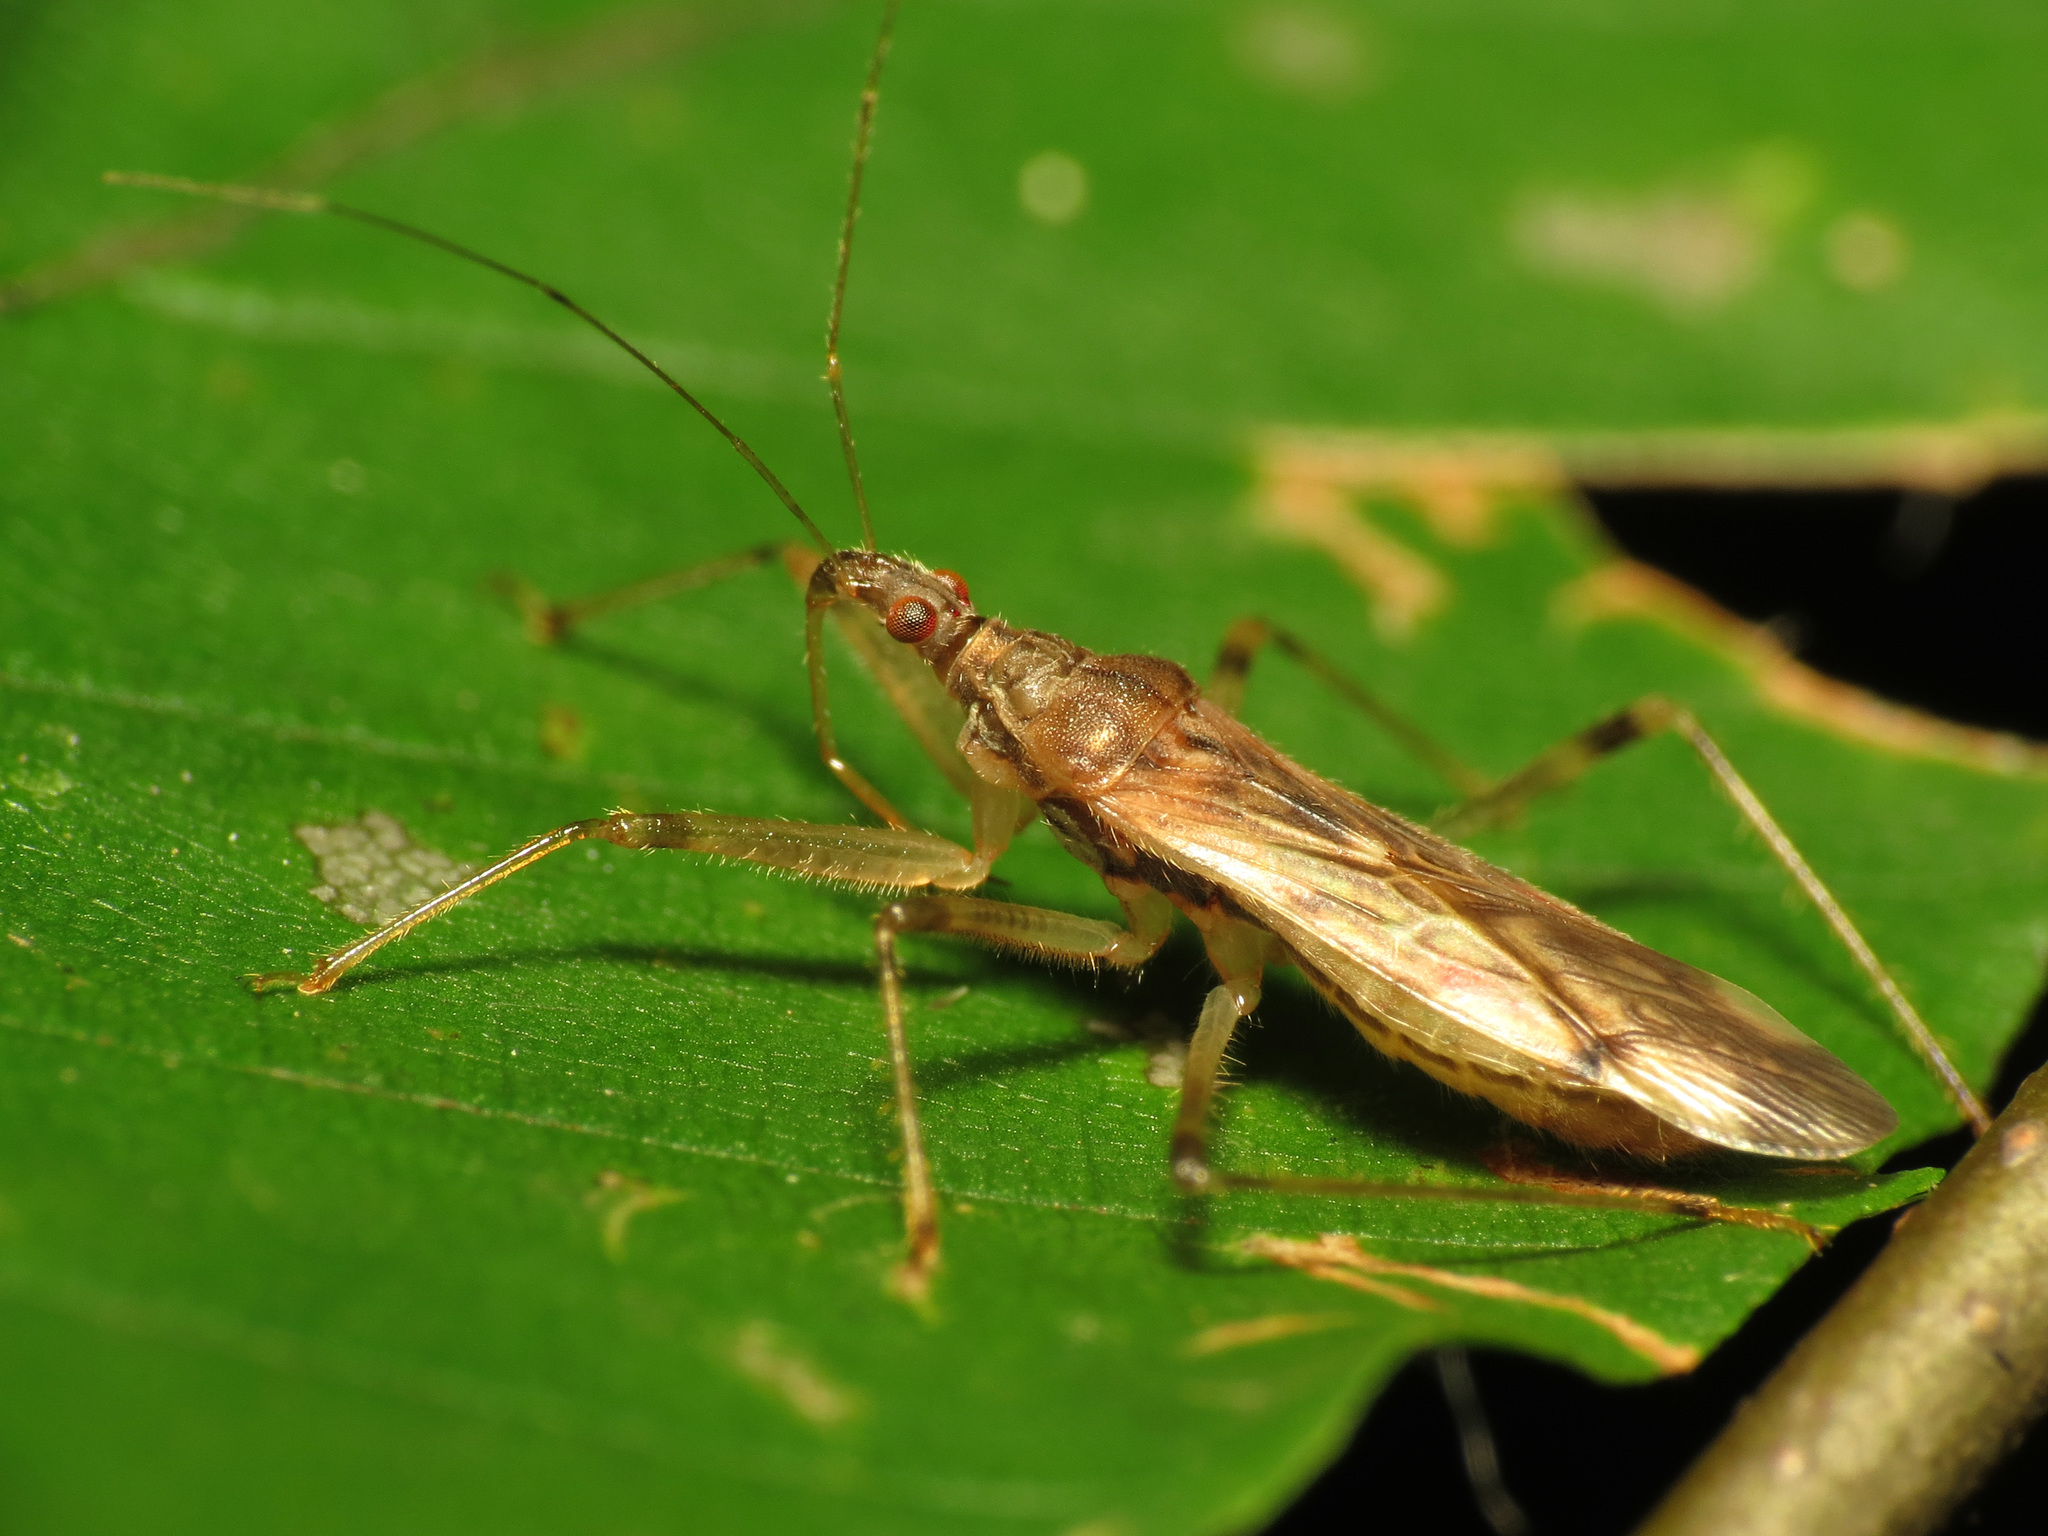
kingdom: Animalia
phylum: Arthropoda
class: Insecta
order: Hemiptera
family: Nabidae
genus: Lasiomerus
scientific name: Lasiomerus annulatus
